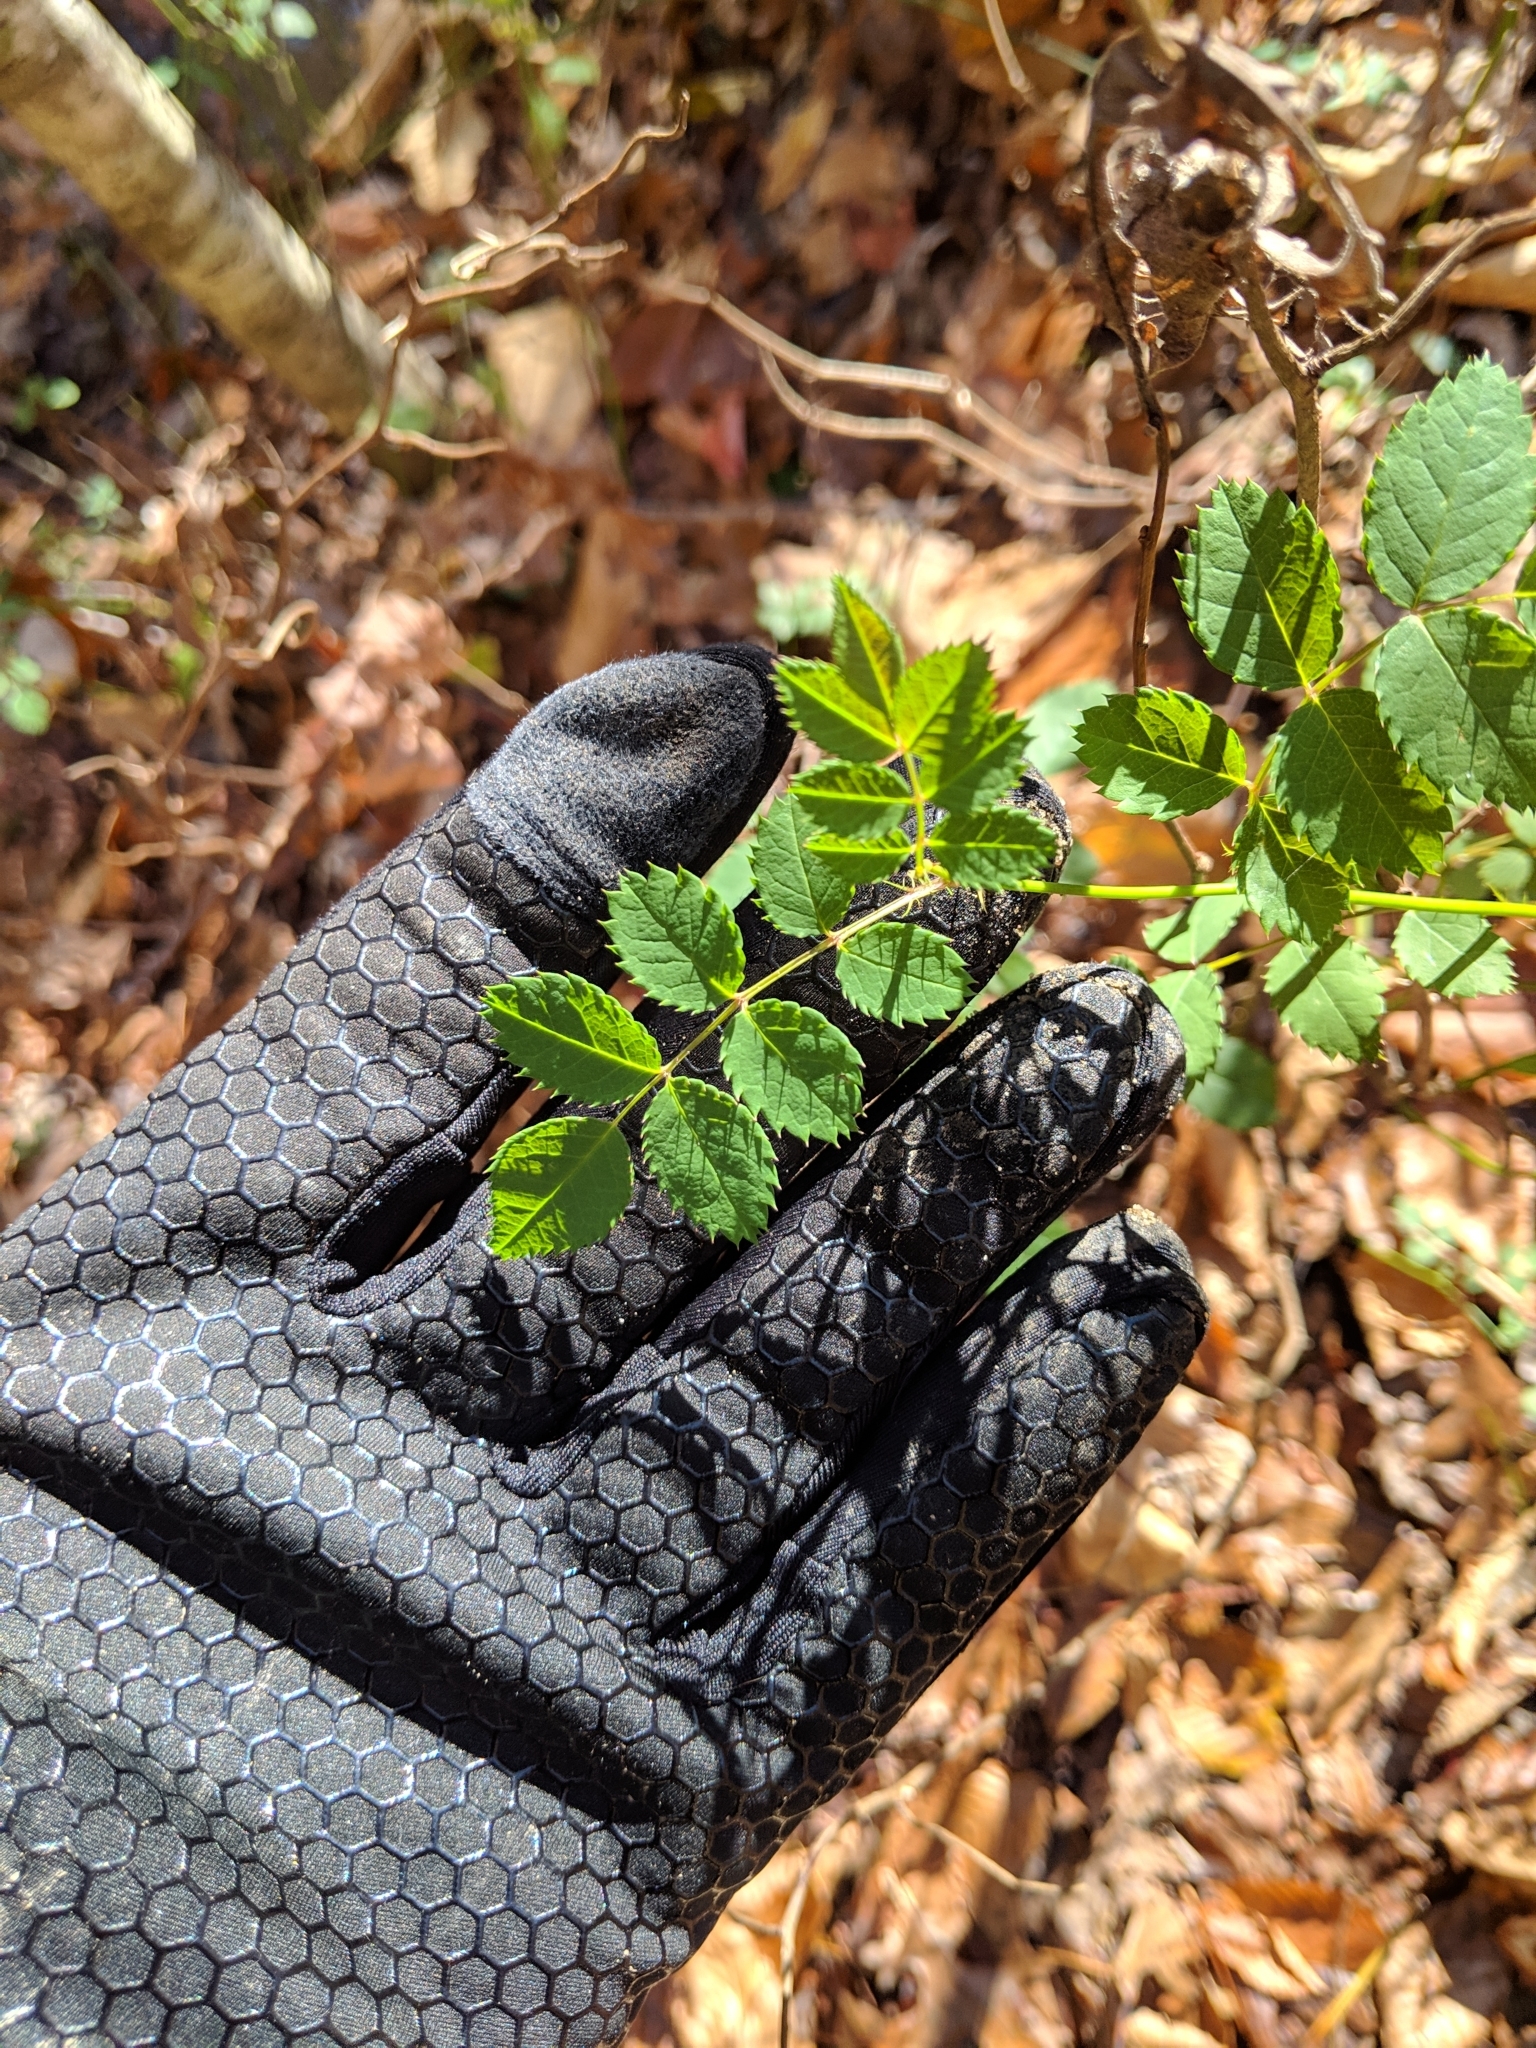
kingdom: Plantae
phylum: Tracheophyta
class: Magnoliopsida
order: Rosales
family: Rosaceae
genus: Rosa
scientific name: Rosa multiflora
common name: Multiflora rose
